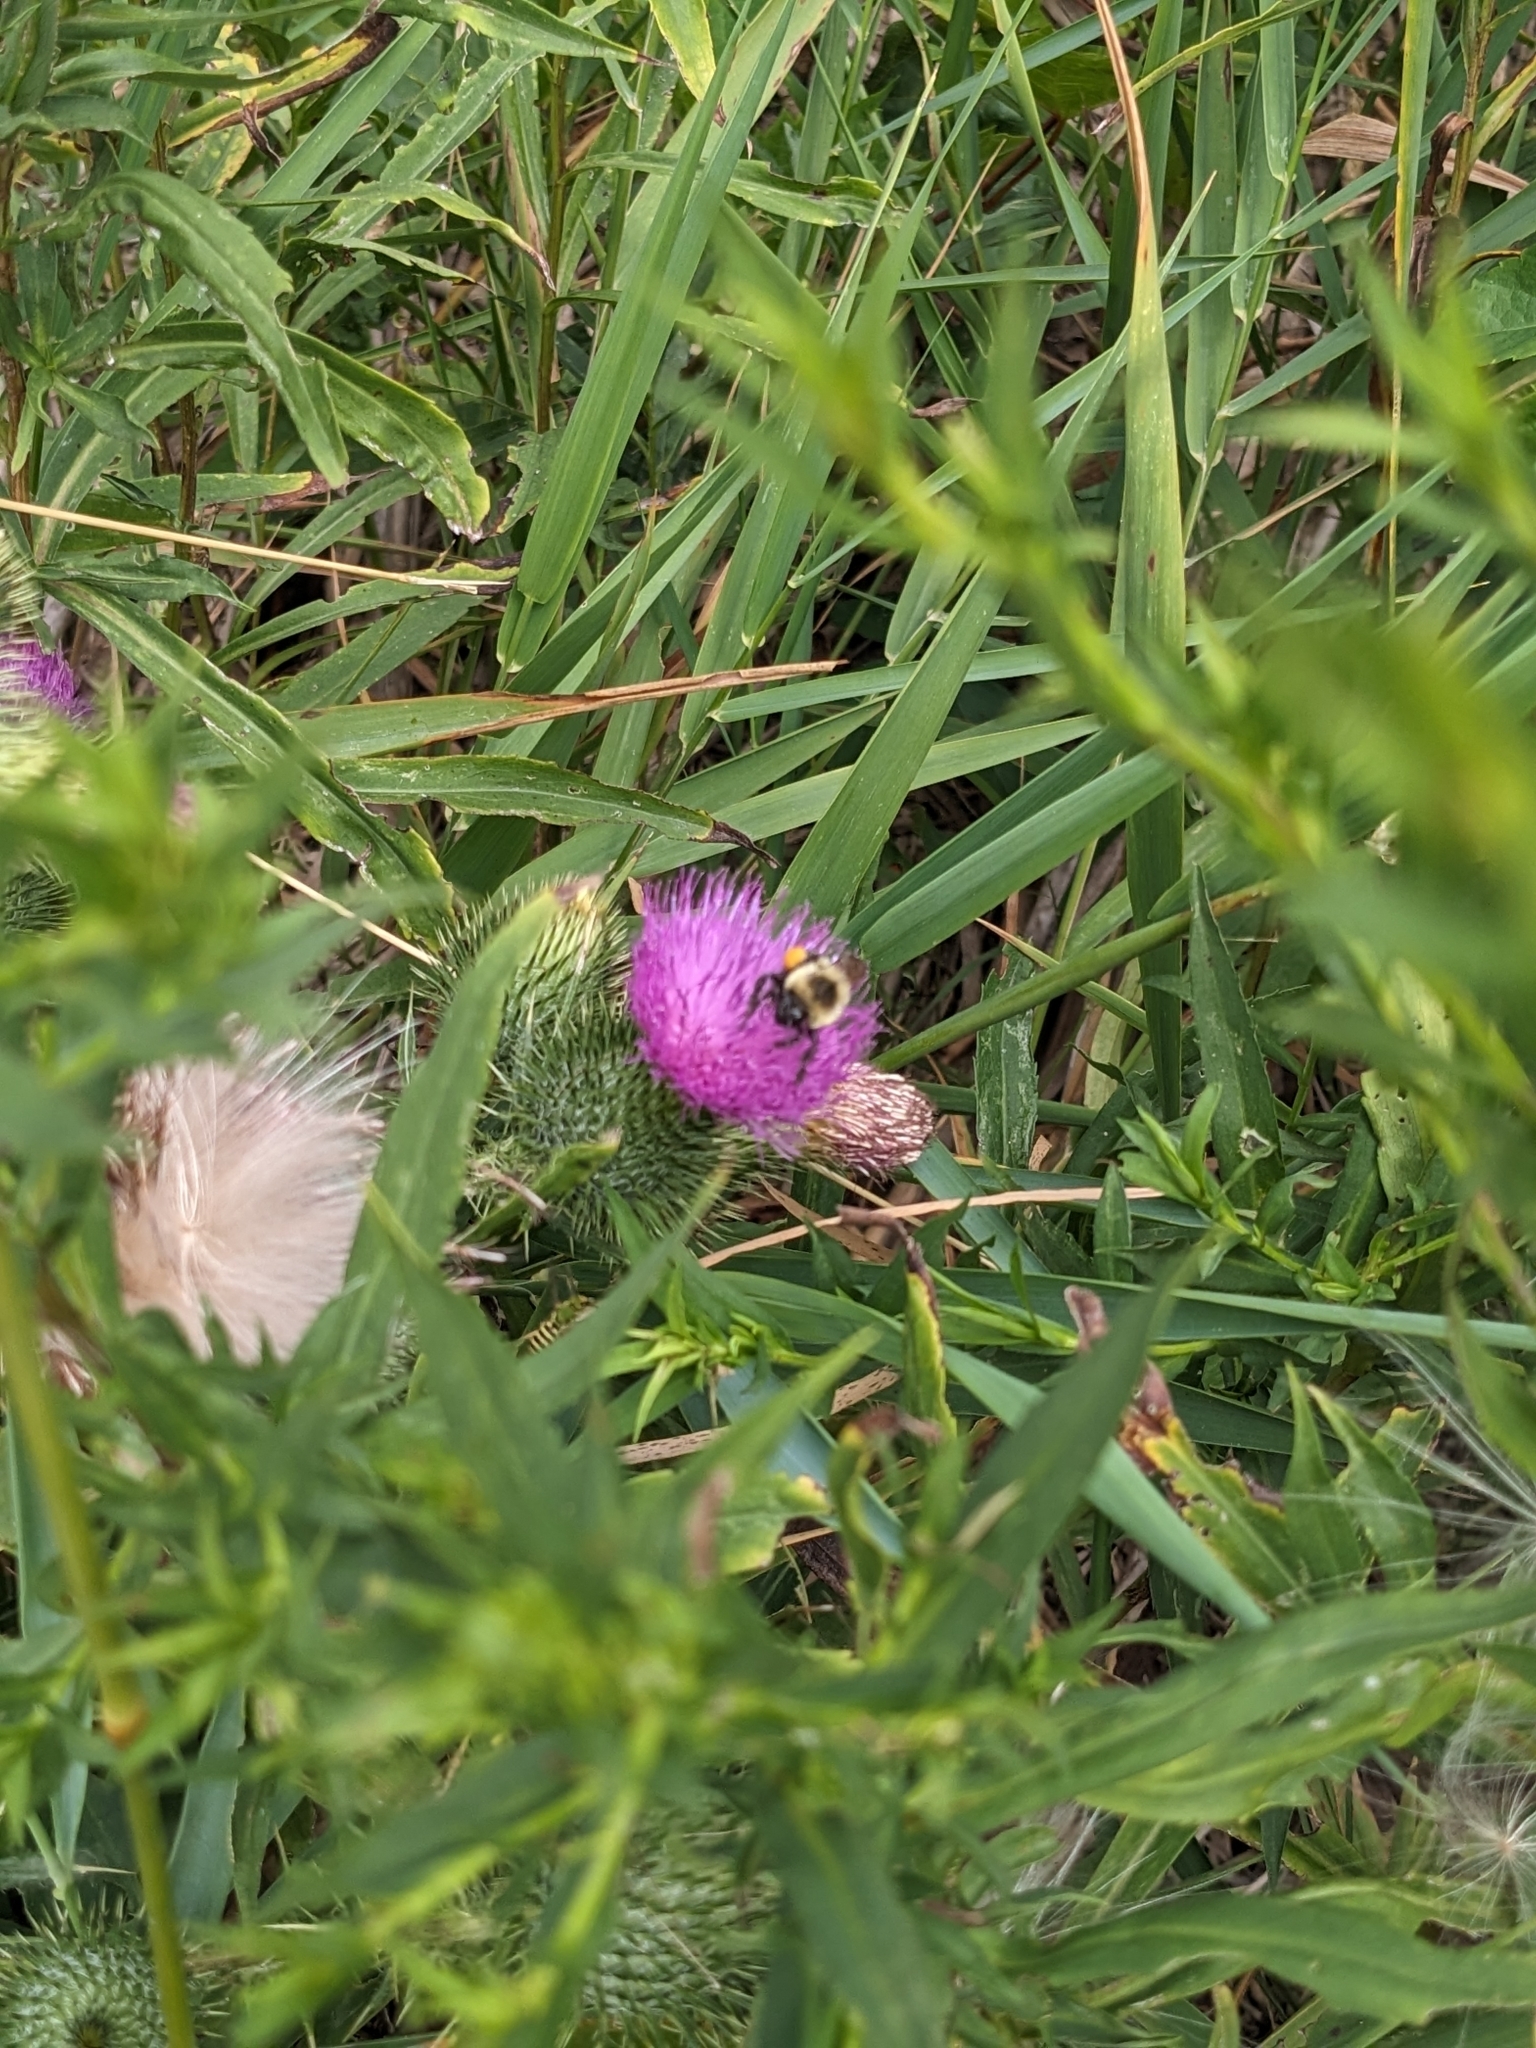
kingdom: Animalia
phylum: Arthropoda
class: Insecta
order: Hymenoptera
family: Apidae
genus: Bombus
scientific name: Bombus impatiens
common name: Common eastern bumble bee
